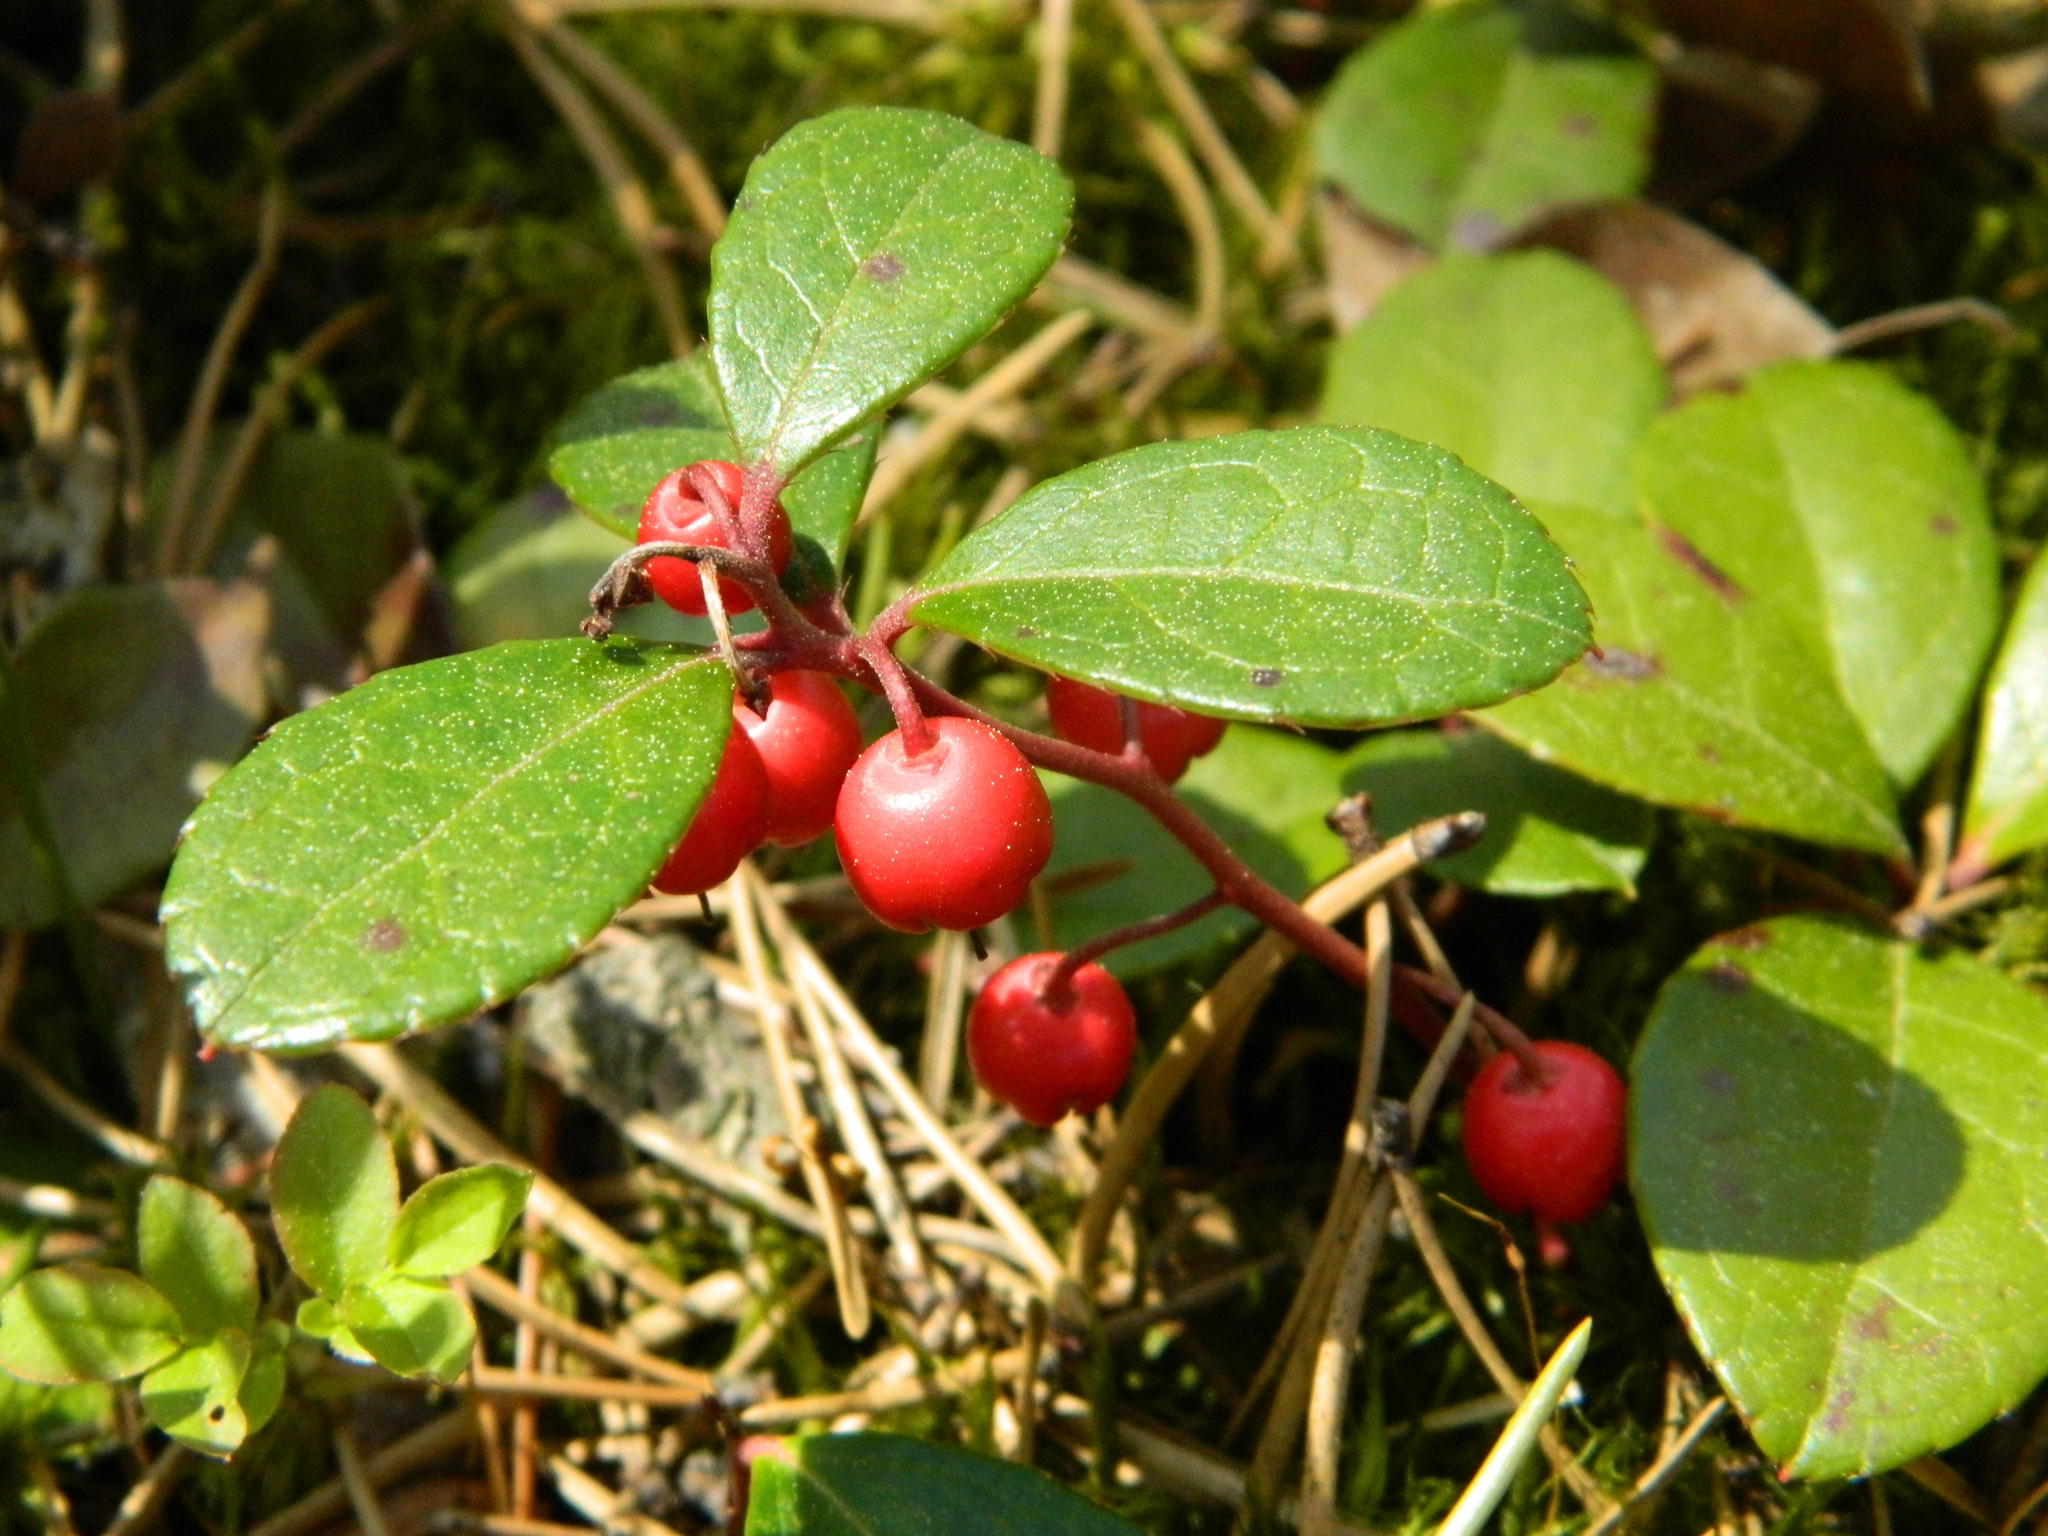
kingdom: Plantae
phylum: Tracheophyta
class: Magnoliopsida
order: Ericales
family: Ericaceae
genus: Gaultheria
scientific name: Gaultheria procumbens
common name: Checkerberry
